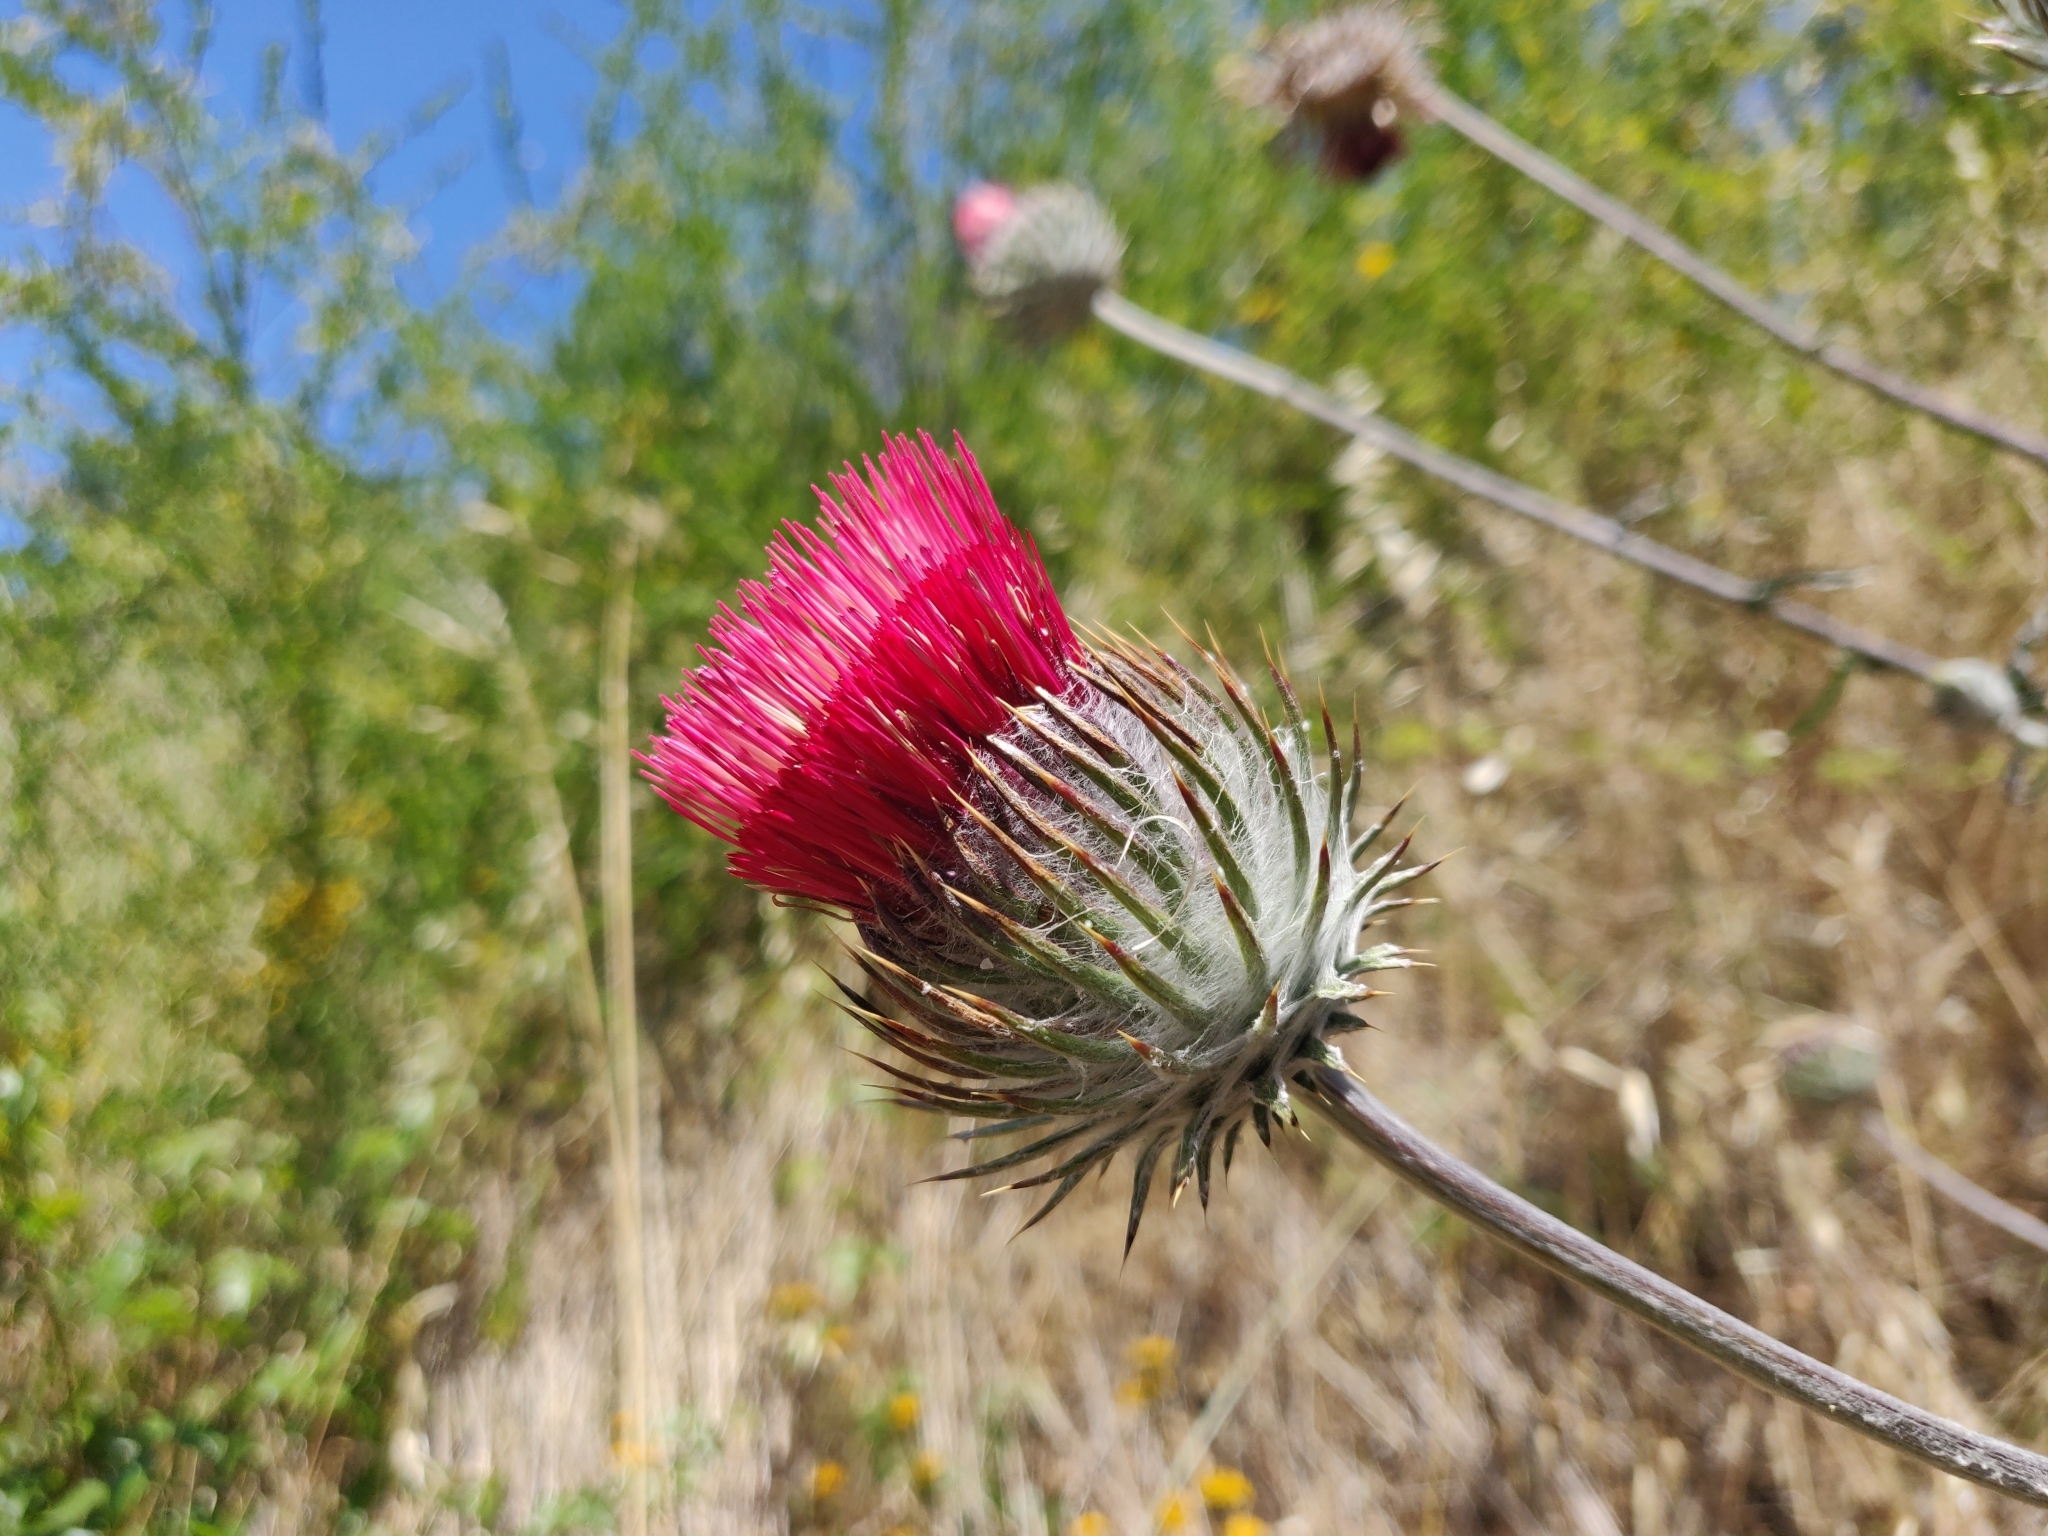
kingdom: Plantae
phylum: Tracheophyta
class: Magnoliopsida
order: Asterales
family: Asteraceae
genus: Cirsium
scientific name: Cirsium occidentale
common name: Western thistle
